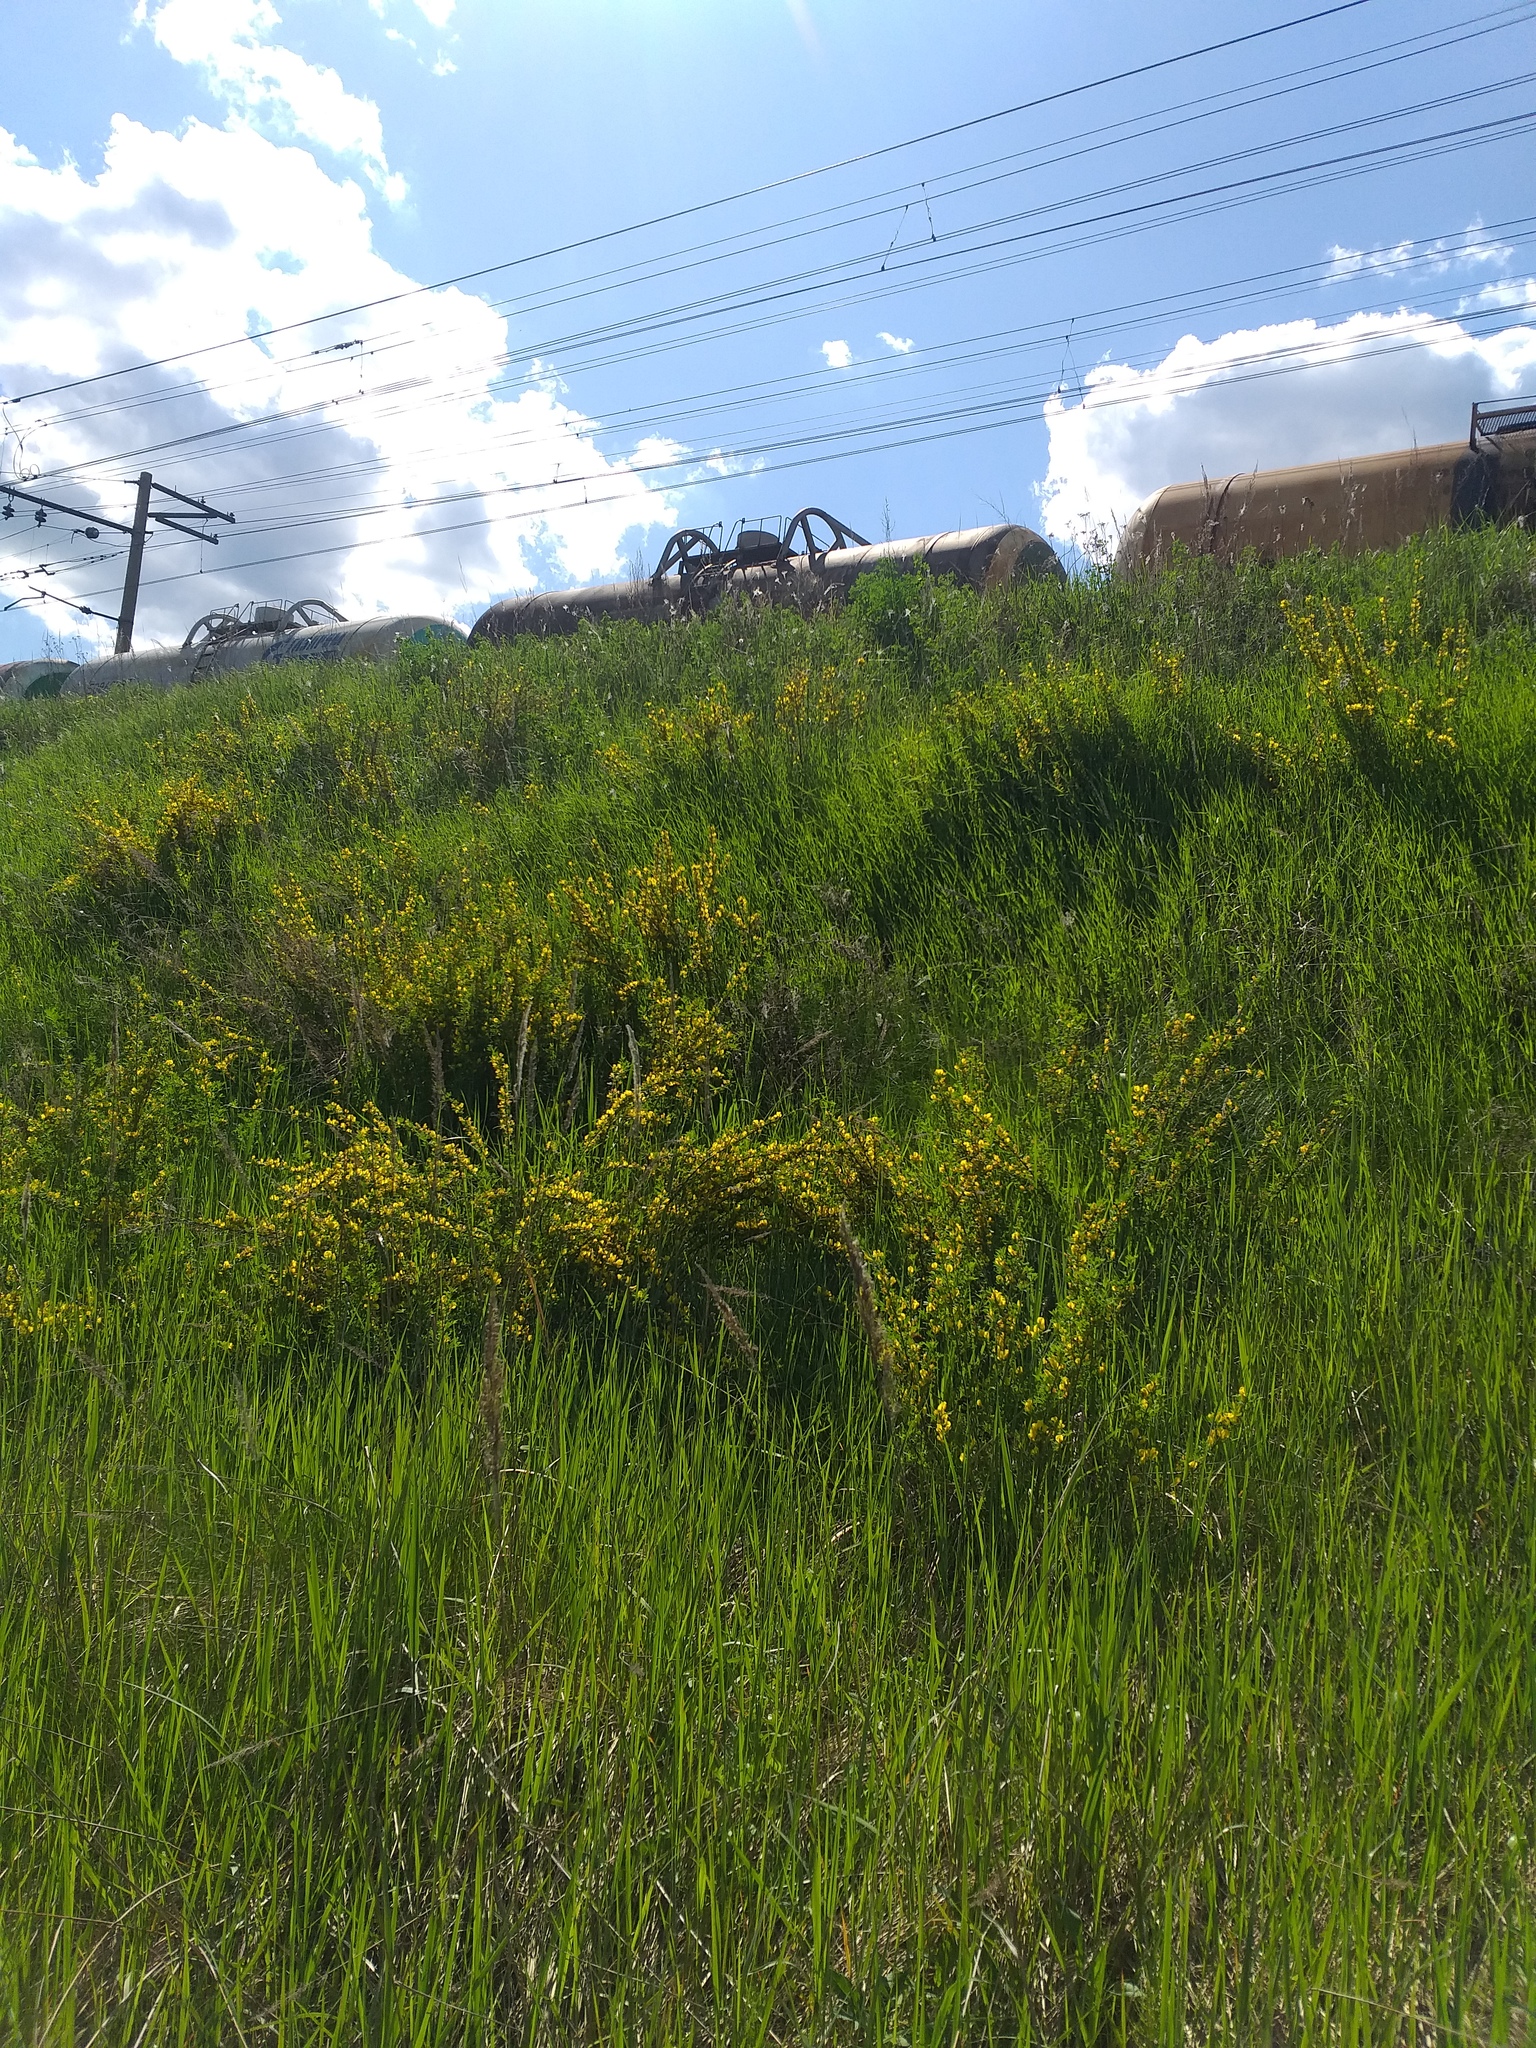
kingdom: Plantae
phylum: Tracheophyta
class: Magnoliopsida
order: Fabales
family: Fabaceae
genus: Chamaecytisus
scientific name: Chamaecytisus ruthenicus
